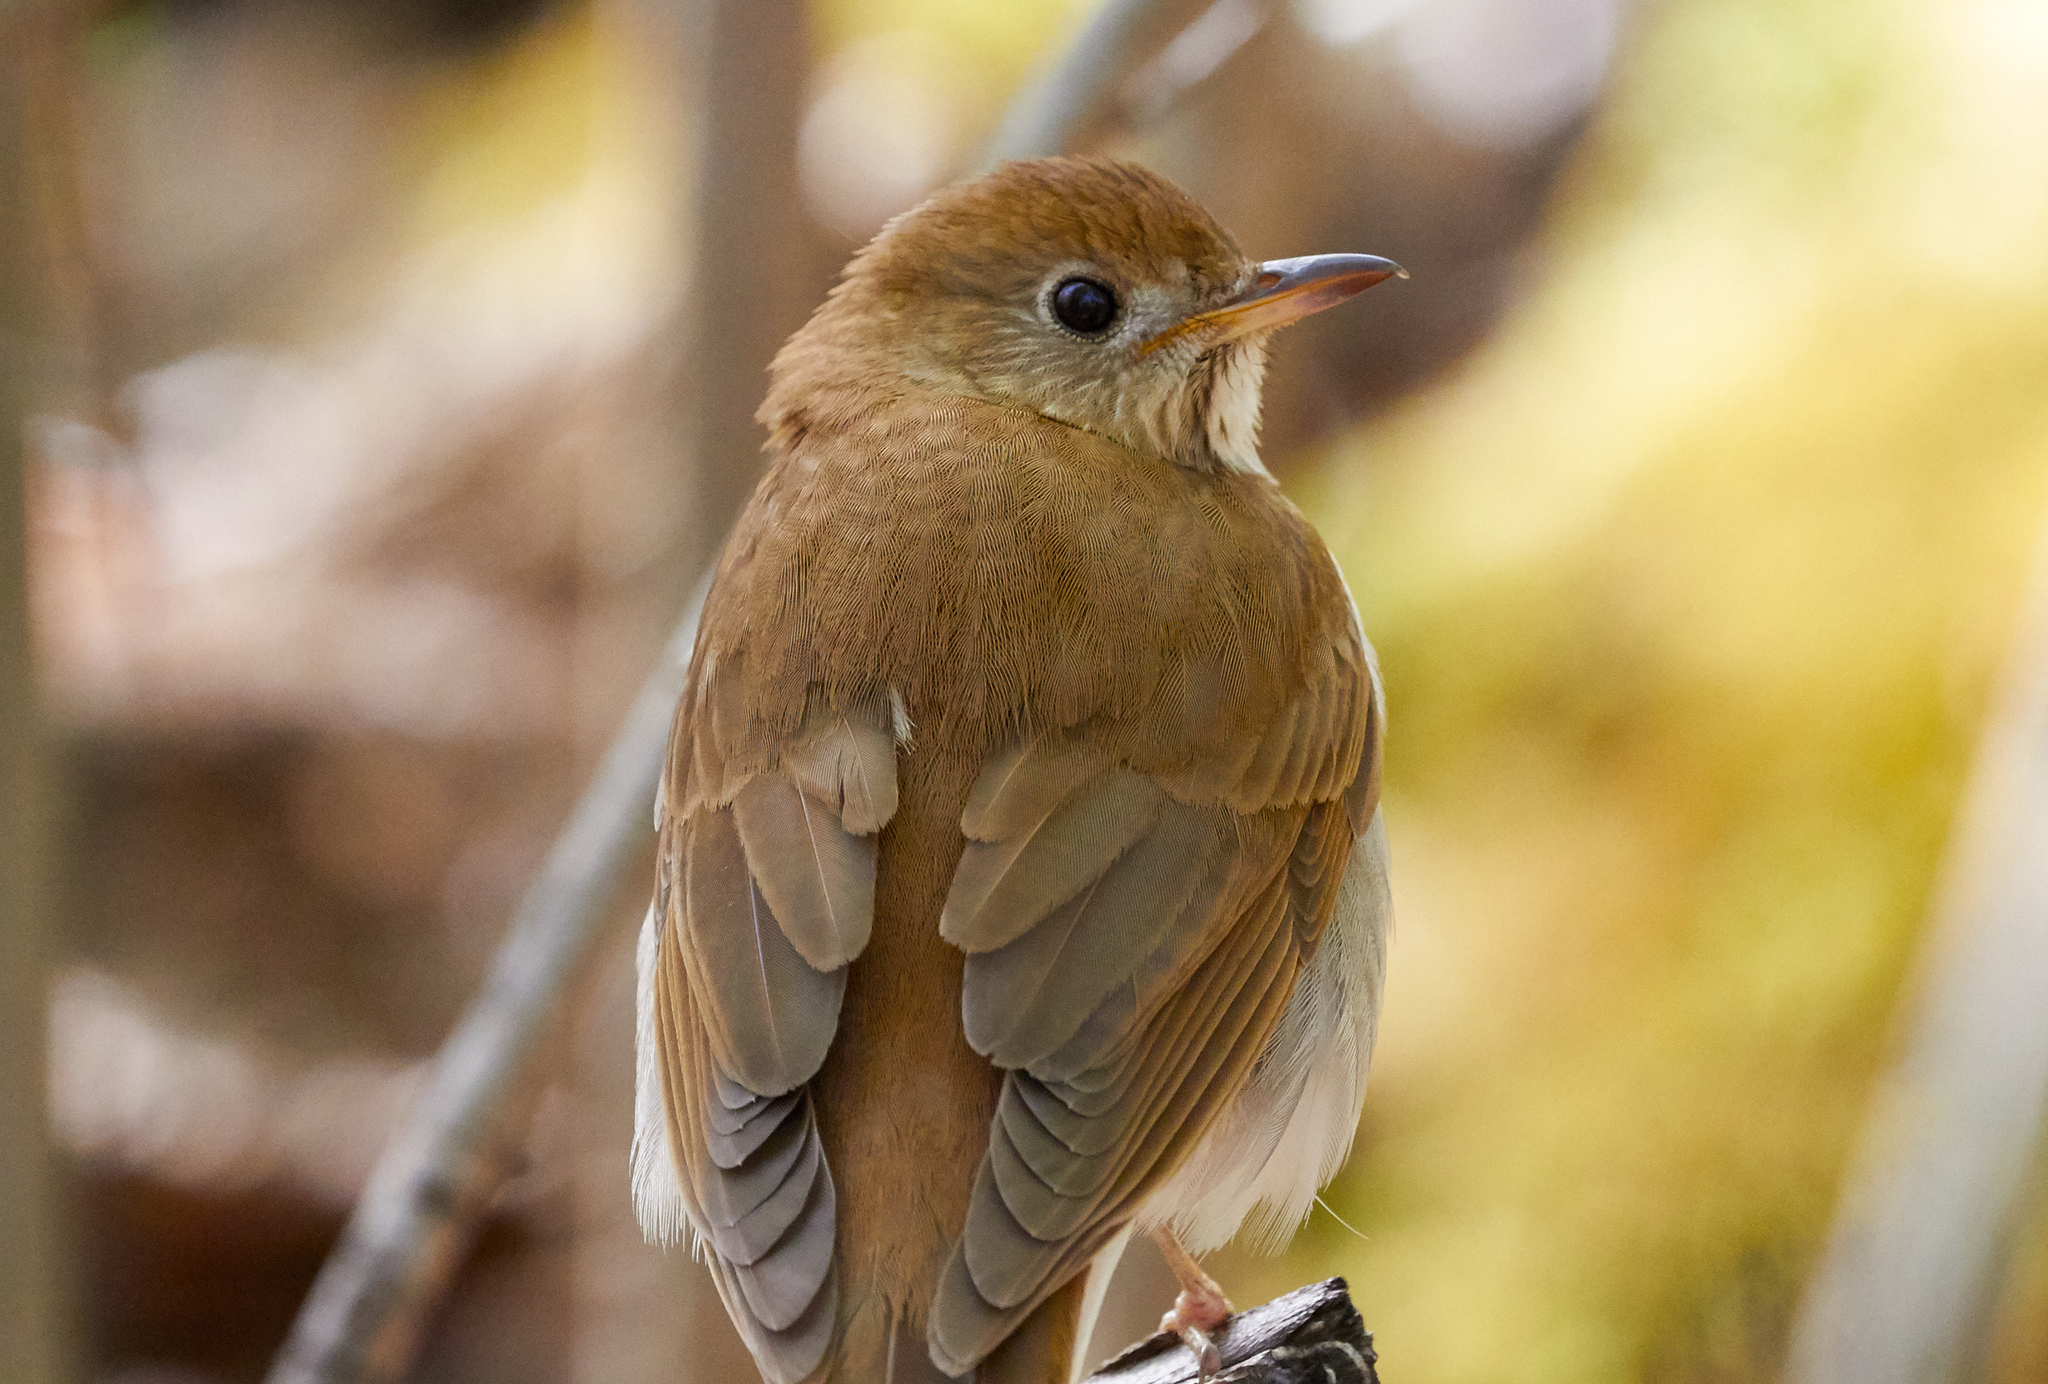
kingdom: Animalia
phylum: Chordata
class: Aves
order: Passeriformes
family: Turdidae
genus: Catharus
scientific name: Catharus fuscescens
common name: Veery
